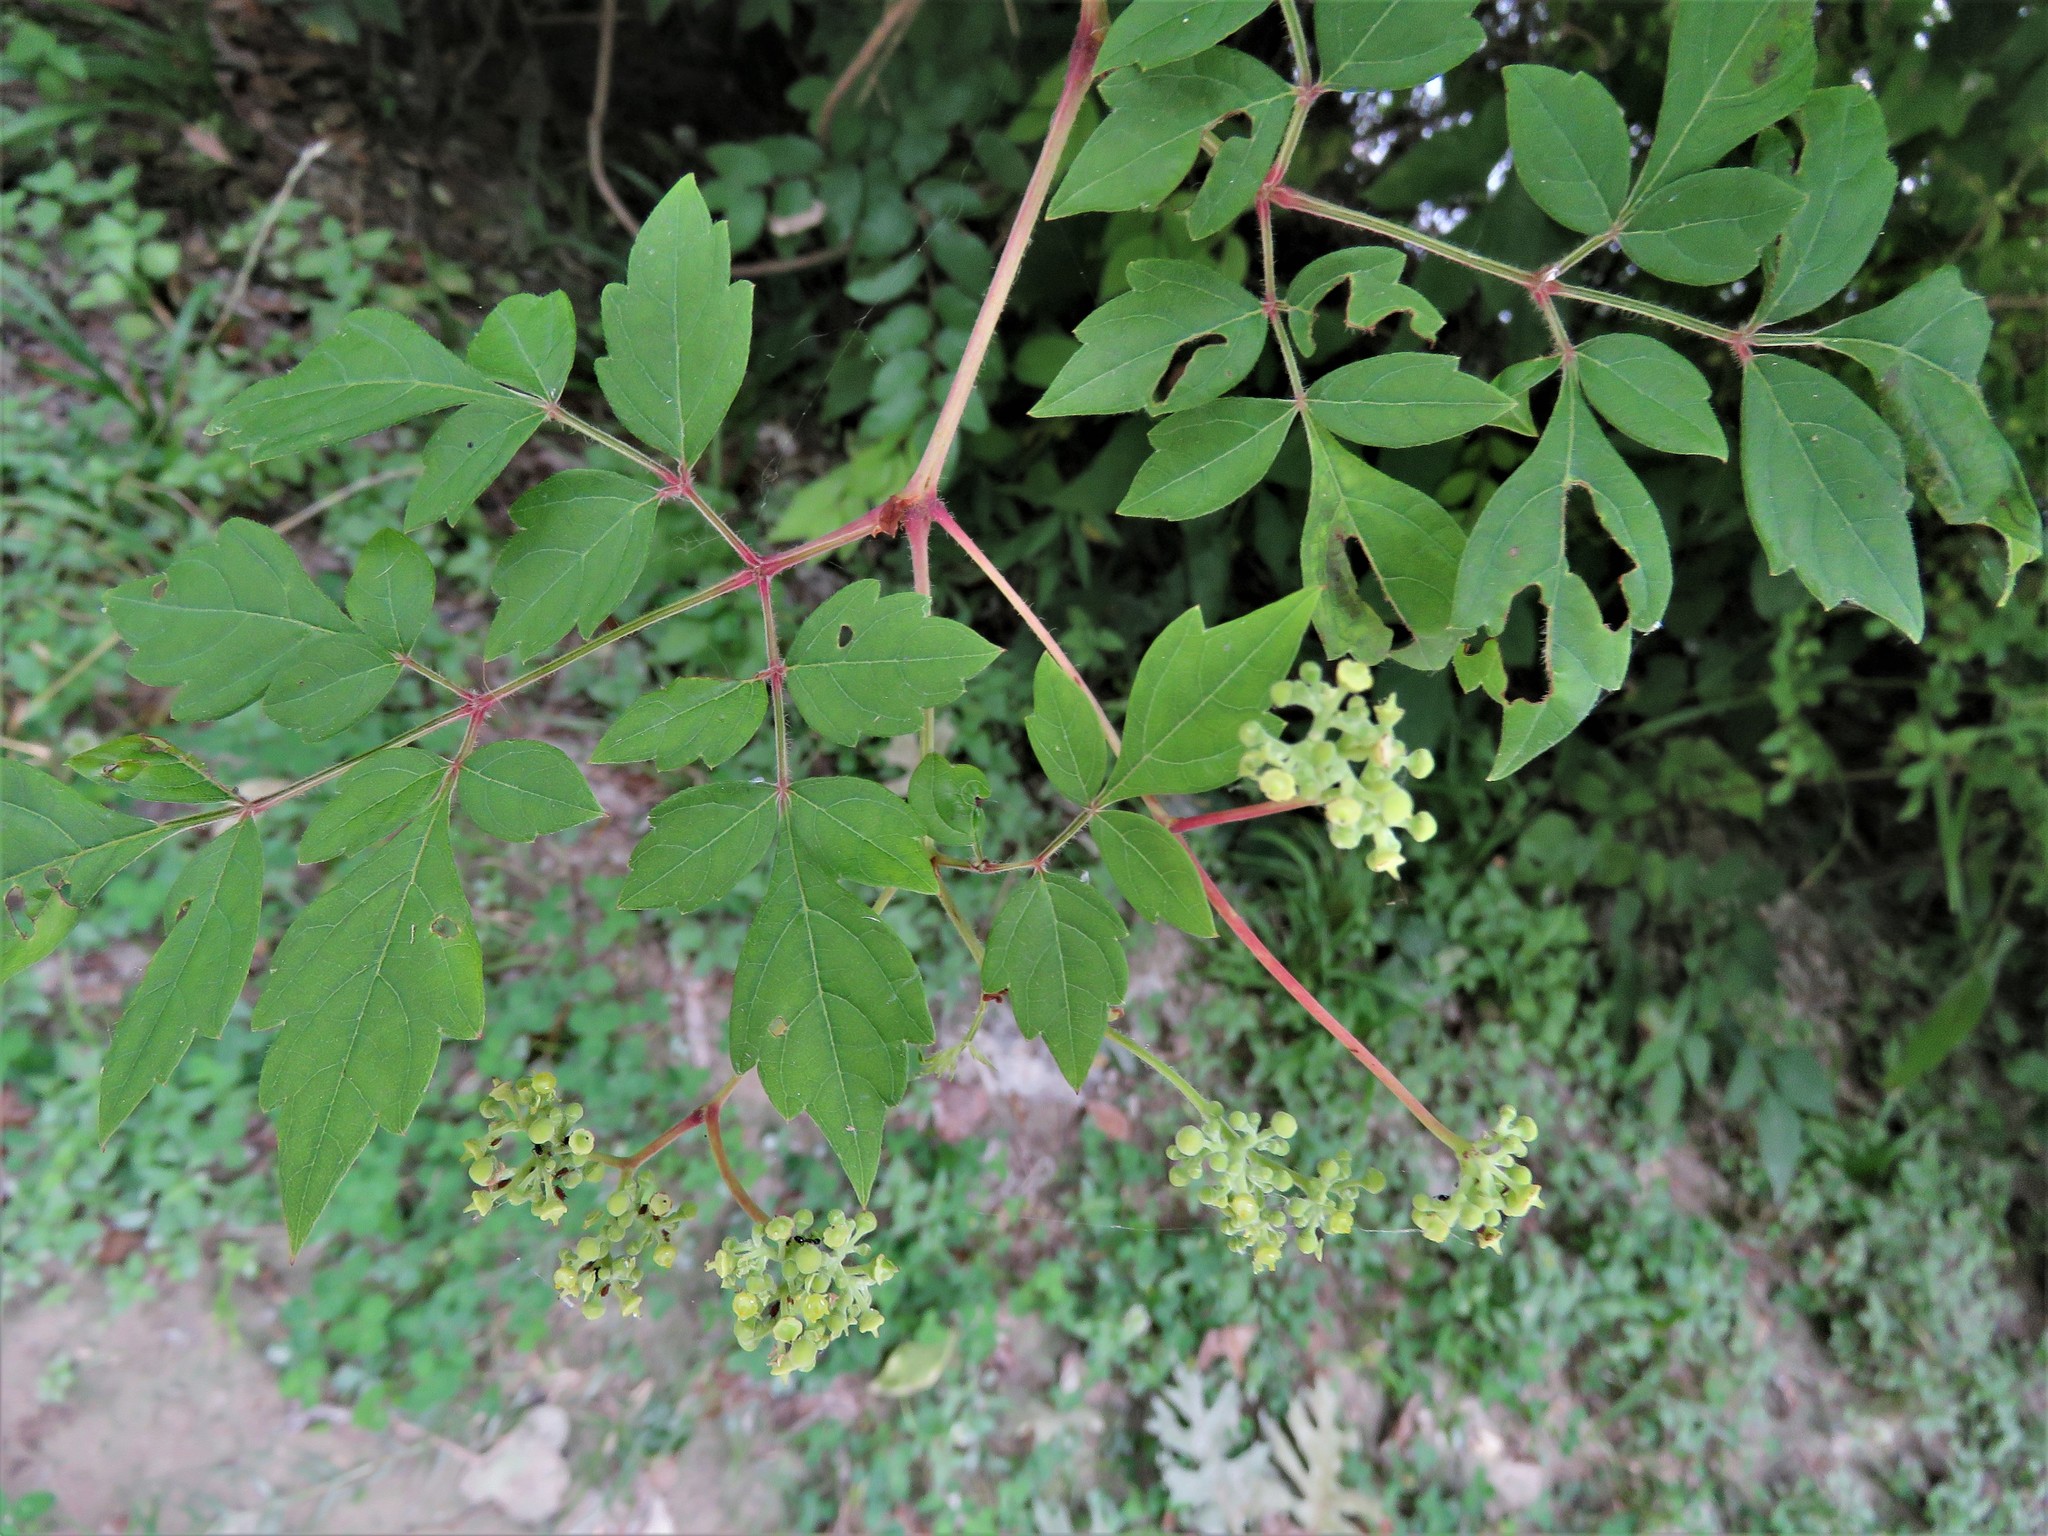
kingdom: Plantae
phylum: Tracheophyta
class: Magnoliopsida
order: Vitales
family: Vitaceae
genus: Nekemias
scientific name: Nekemias arborea
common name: Peppervine
